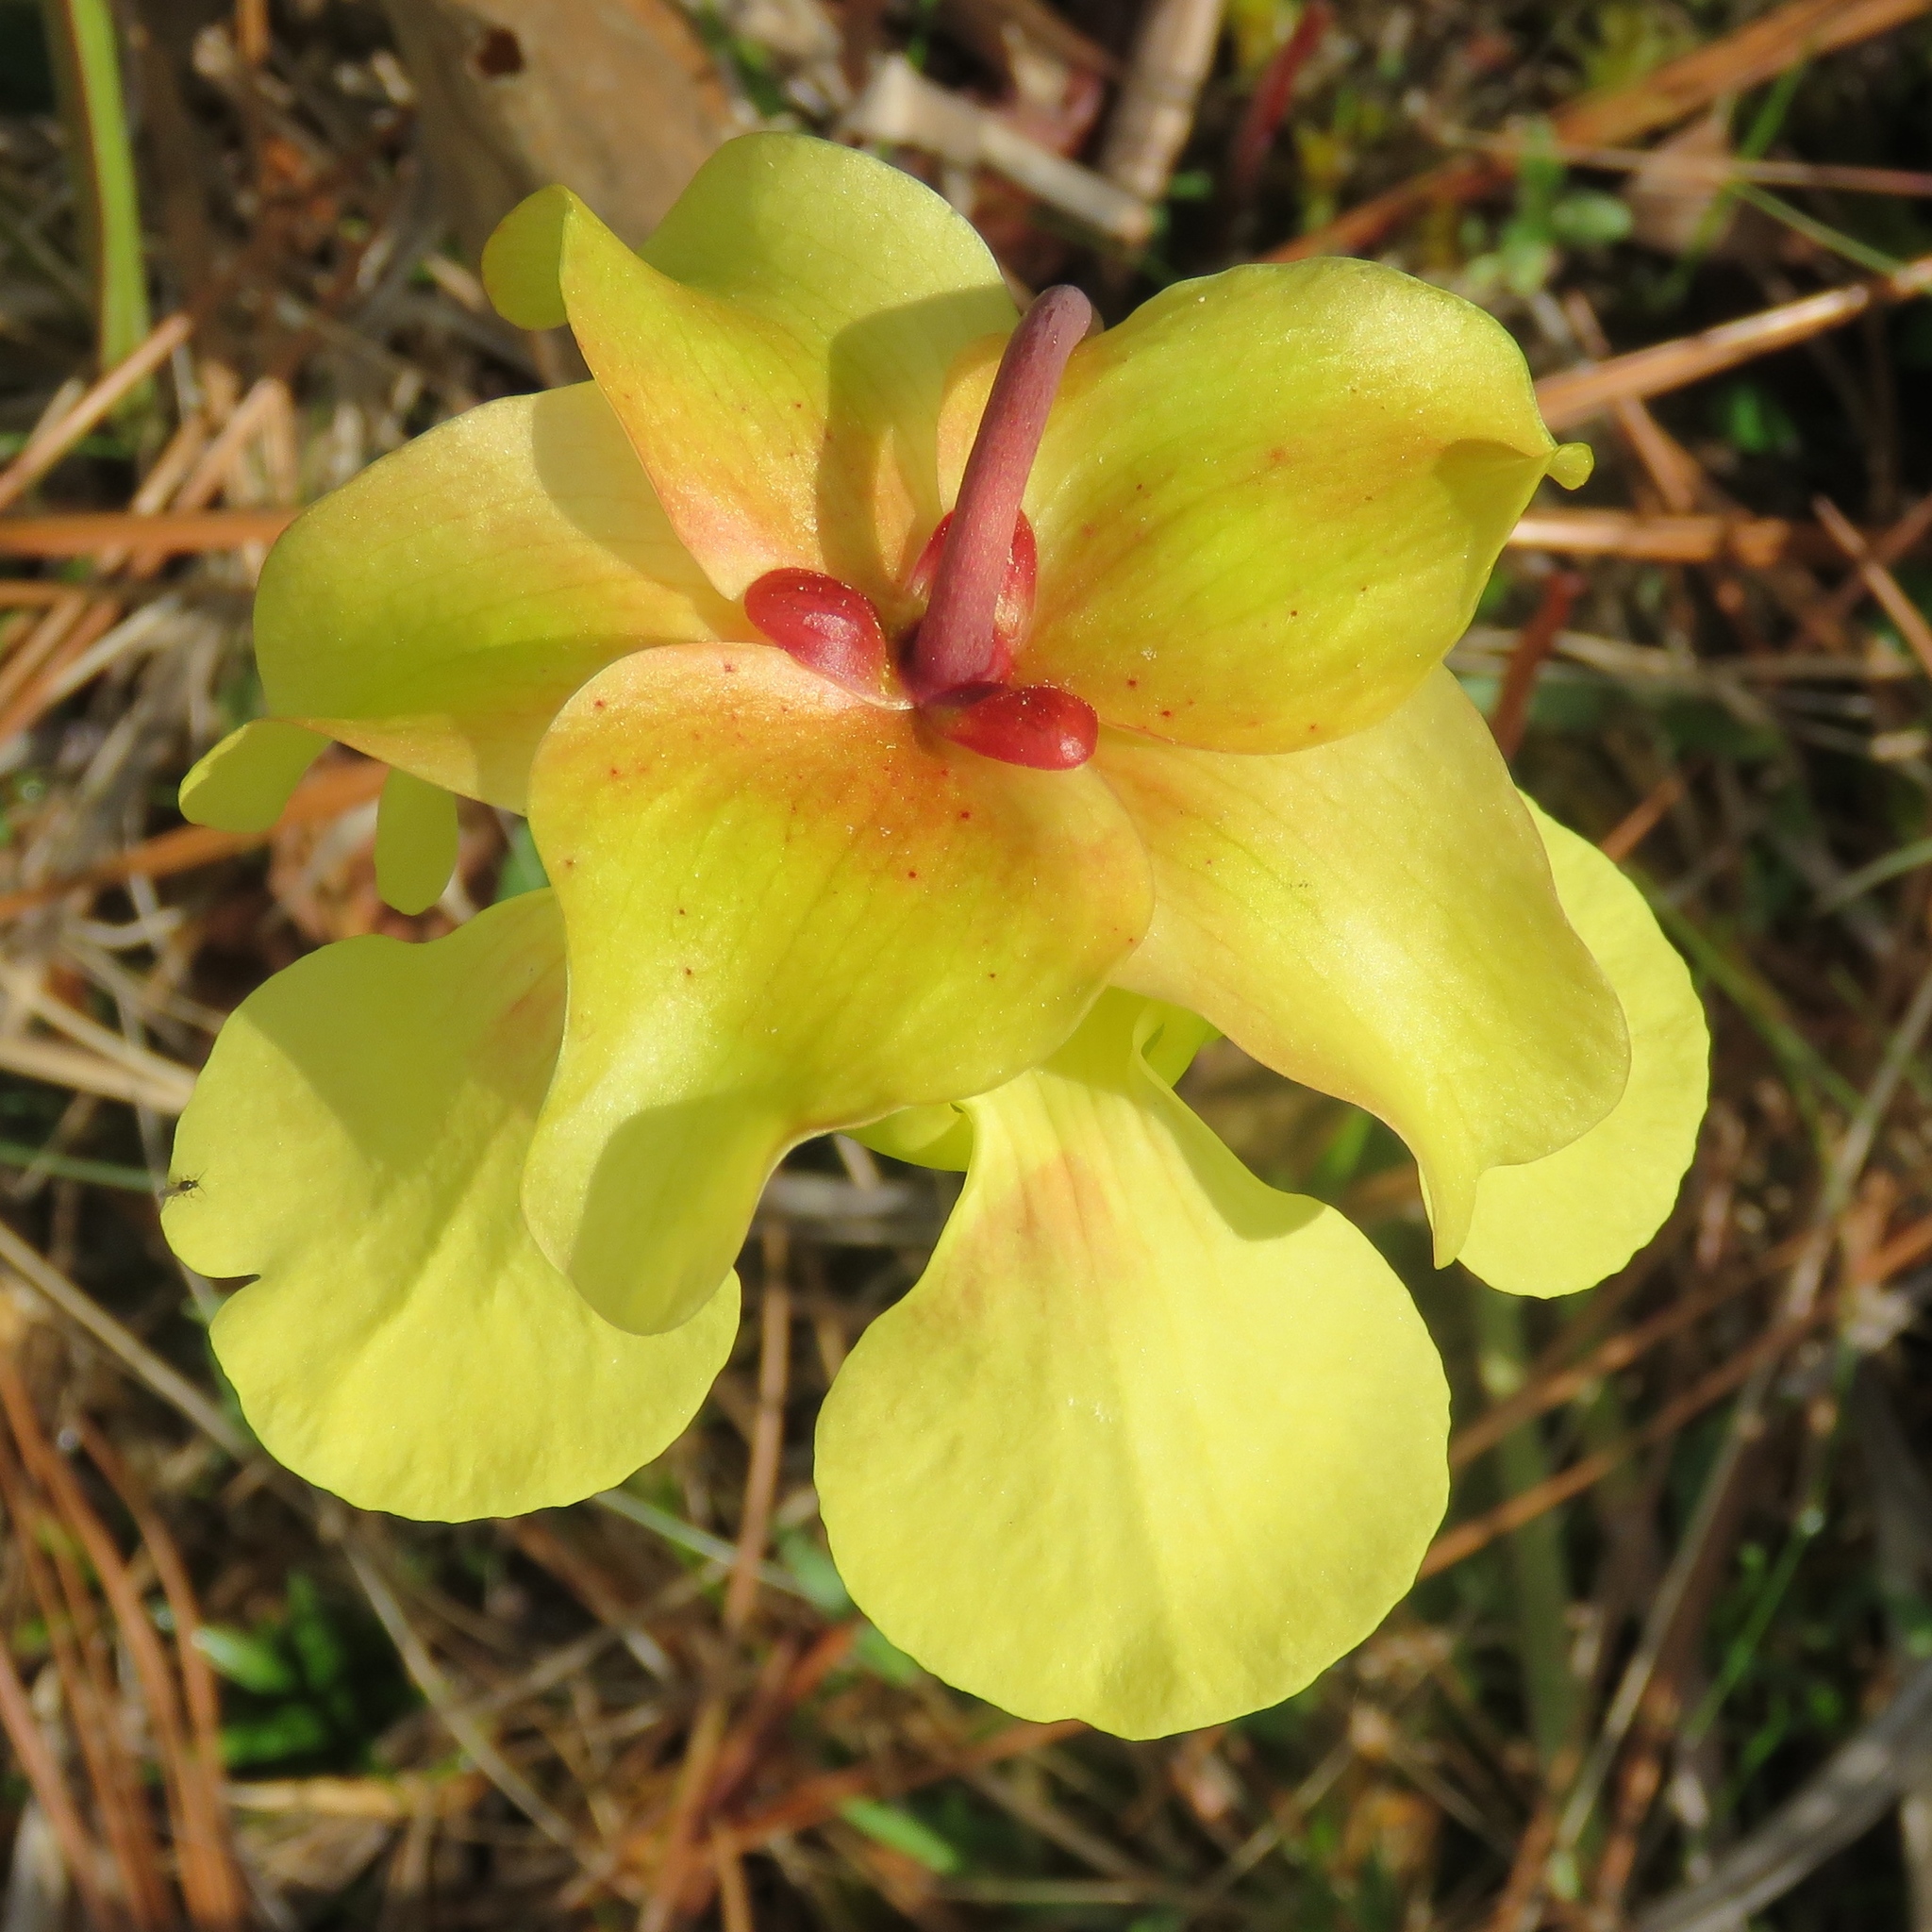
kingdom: Plantae
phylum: Tracheophyta
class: Magnoliopsida
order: Ericales
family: Sarraceniaceae
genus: Sarracenia
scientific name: Sarracenia alata
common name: Yellow trumpets
